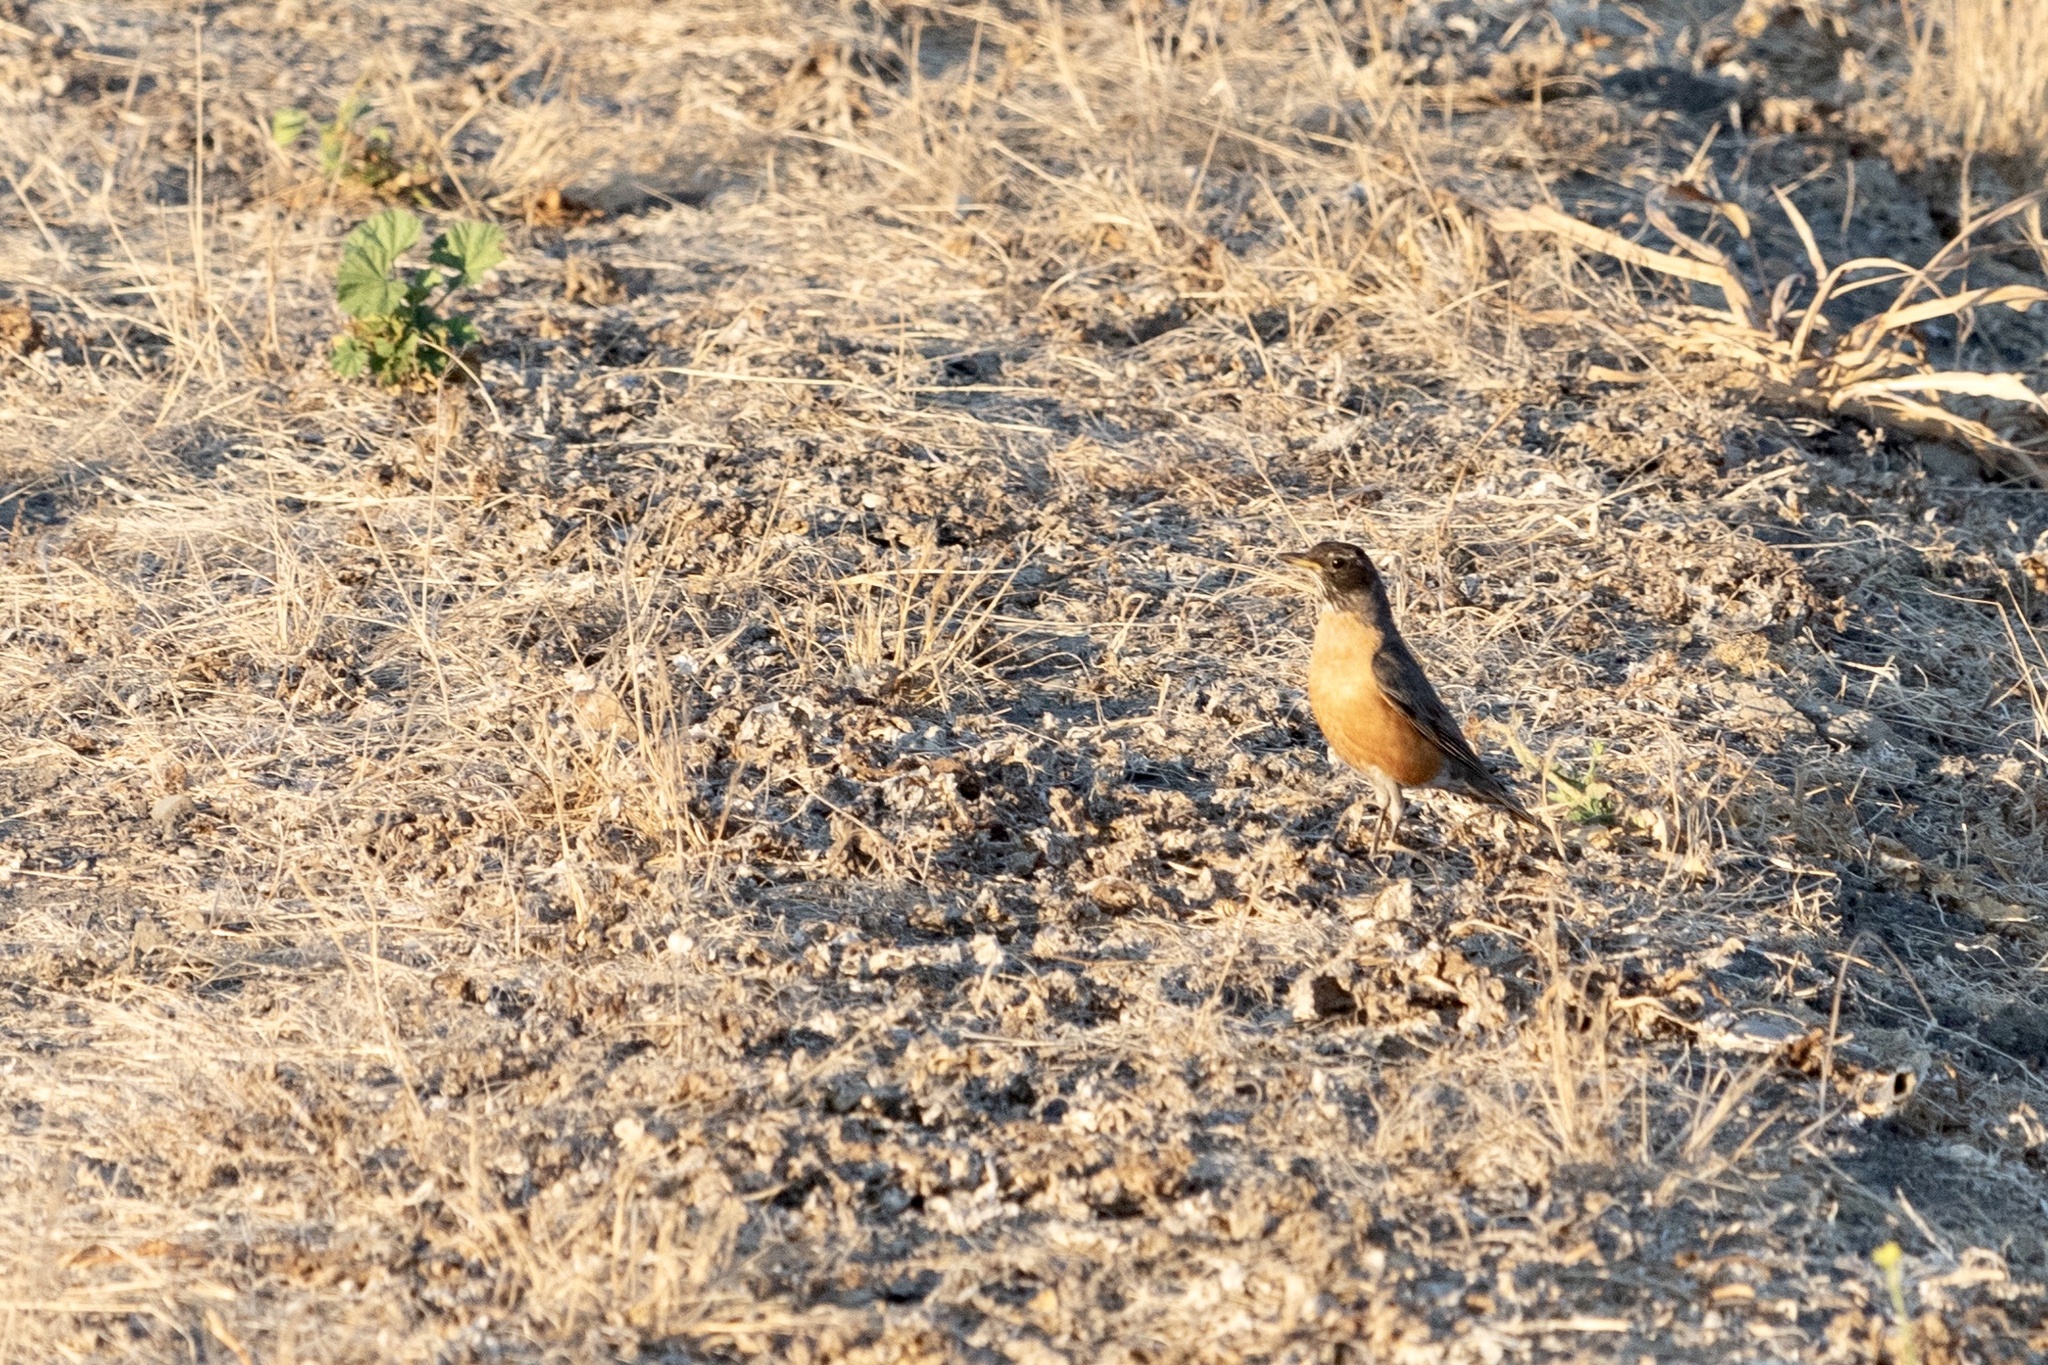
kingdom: Animalia
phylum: Chordata
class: Aves
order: Passeriformes
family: Turdidae
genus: Turdus
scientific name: Turdus migratorius
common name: American robin
